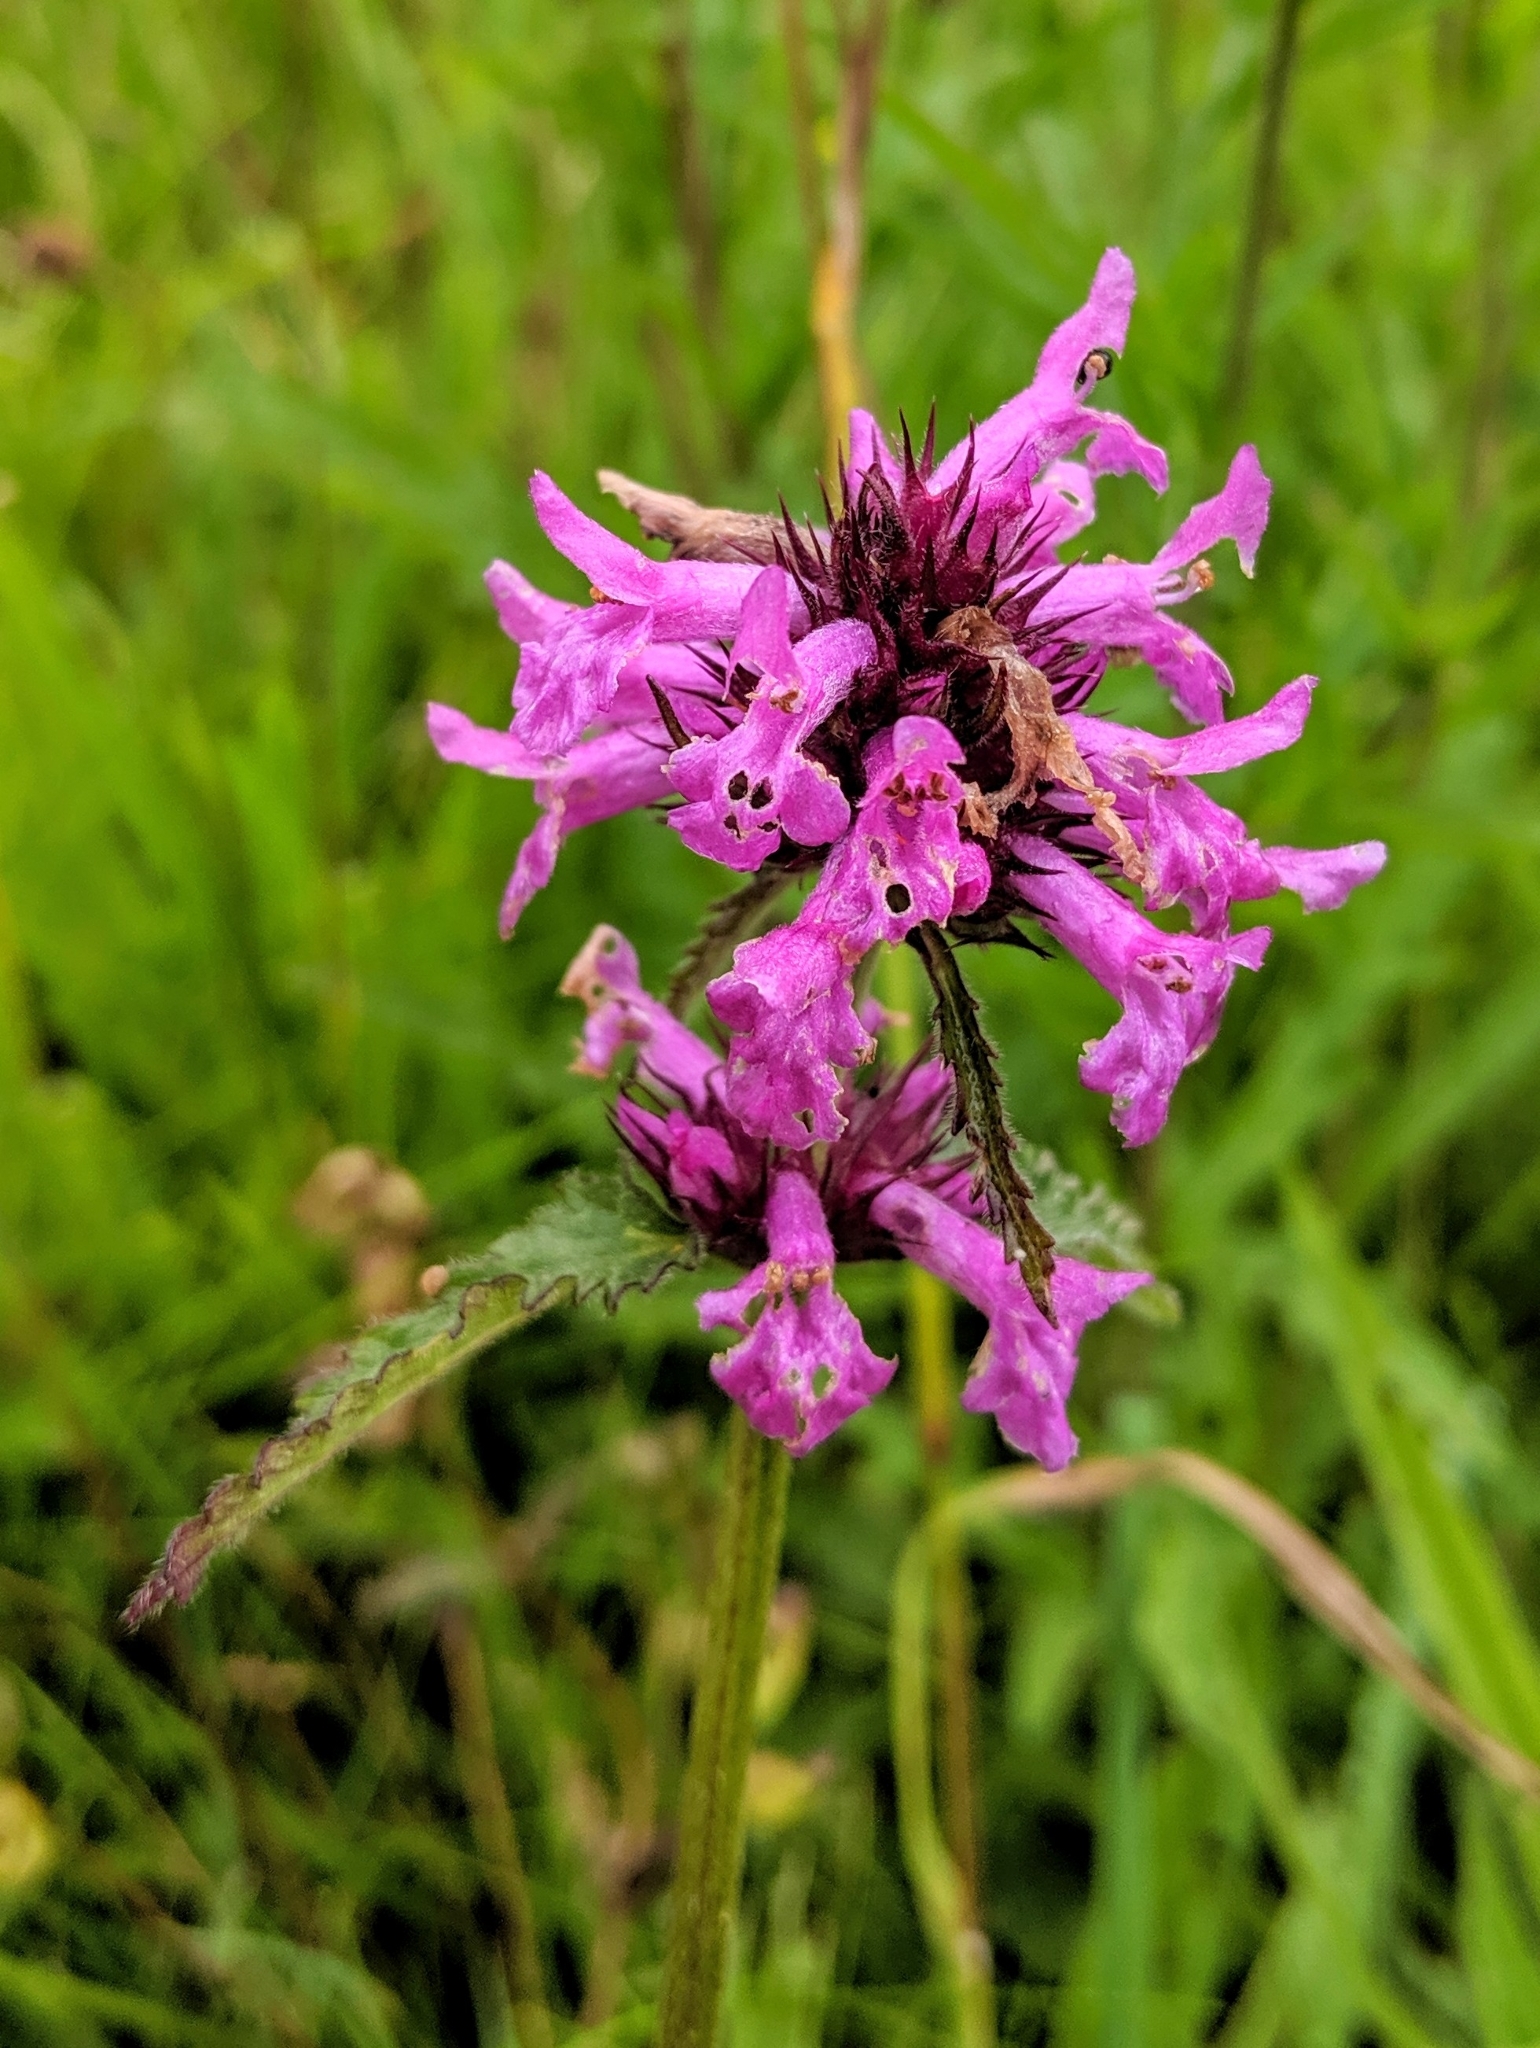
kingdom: Plantae
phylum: Tracheophyta
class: Magnoliopsida
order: Lamiales
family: Lamiaceae
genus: Betonica
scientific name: Betonica officinalis
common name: Bishop's-wort
